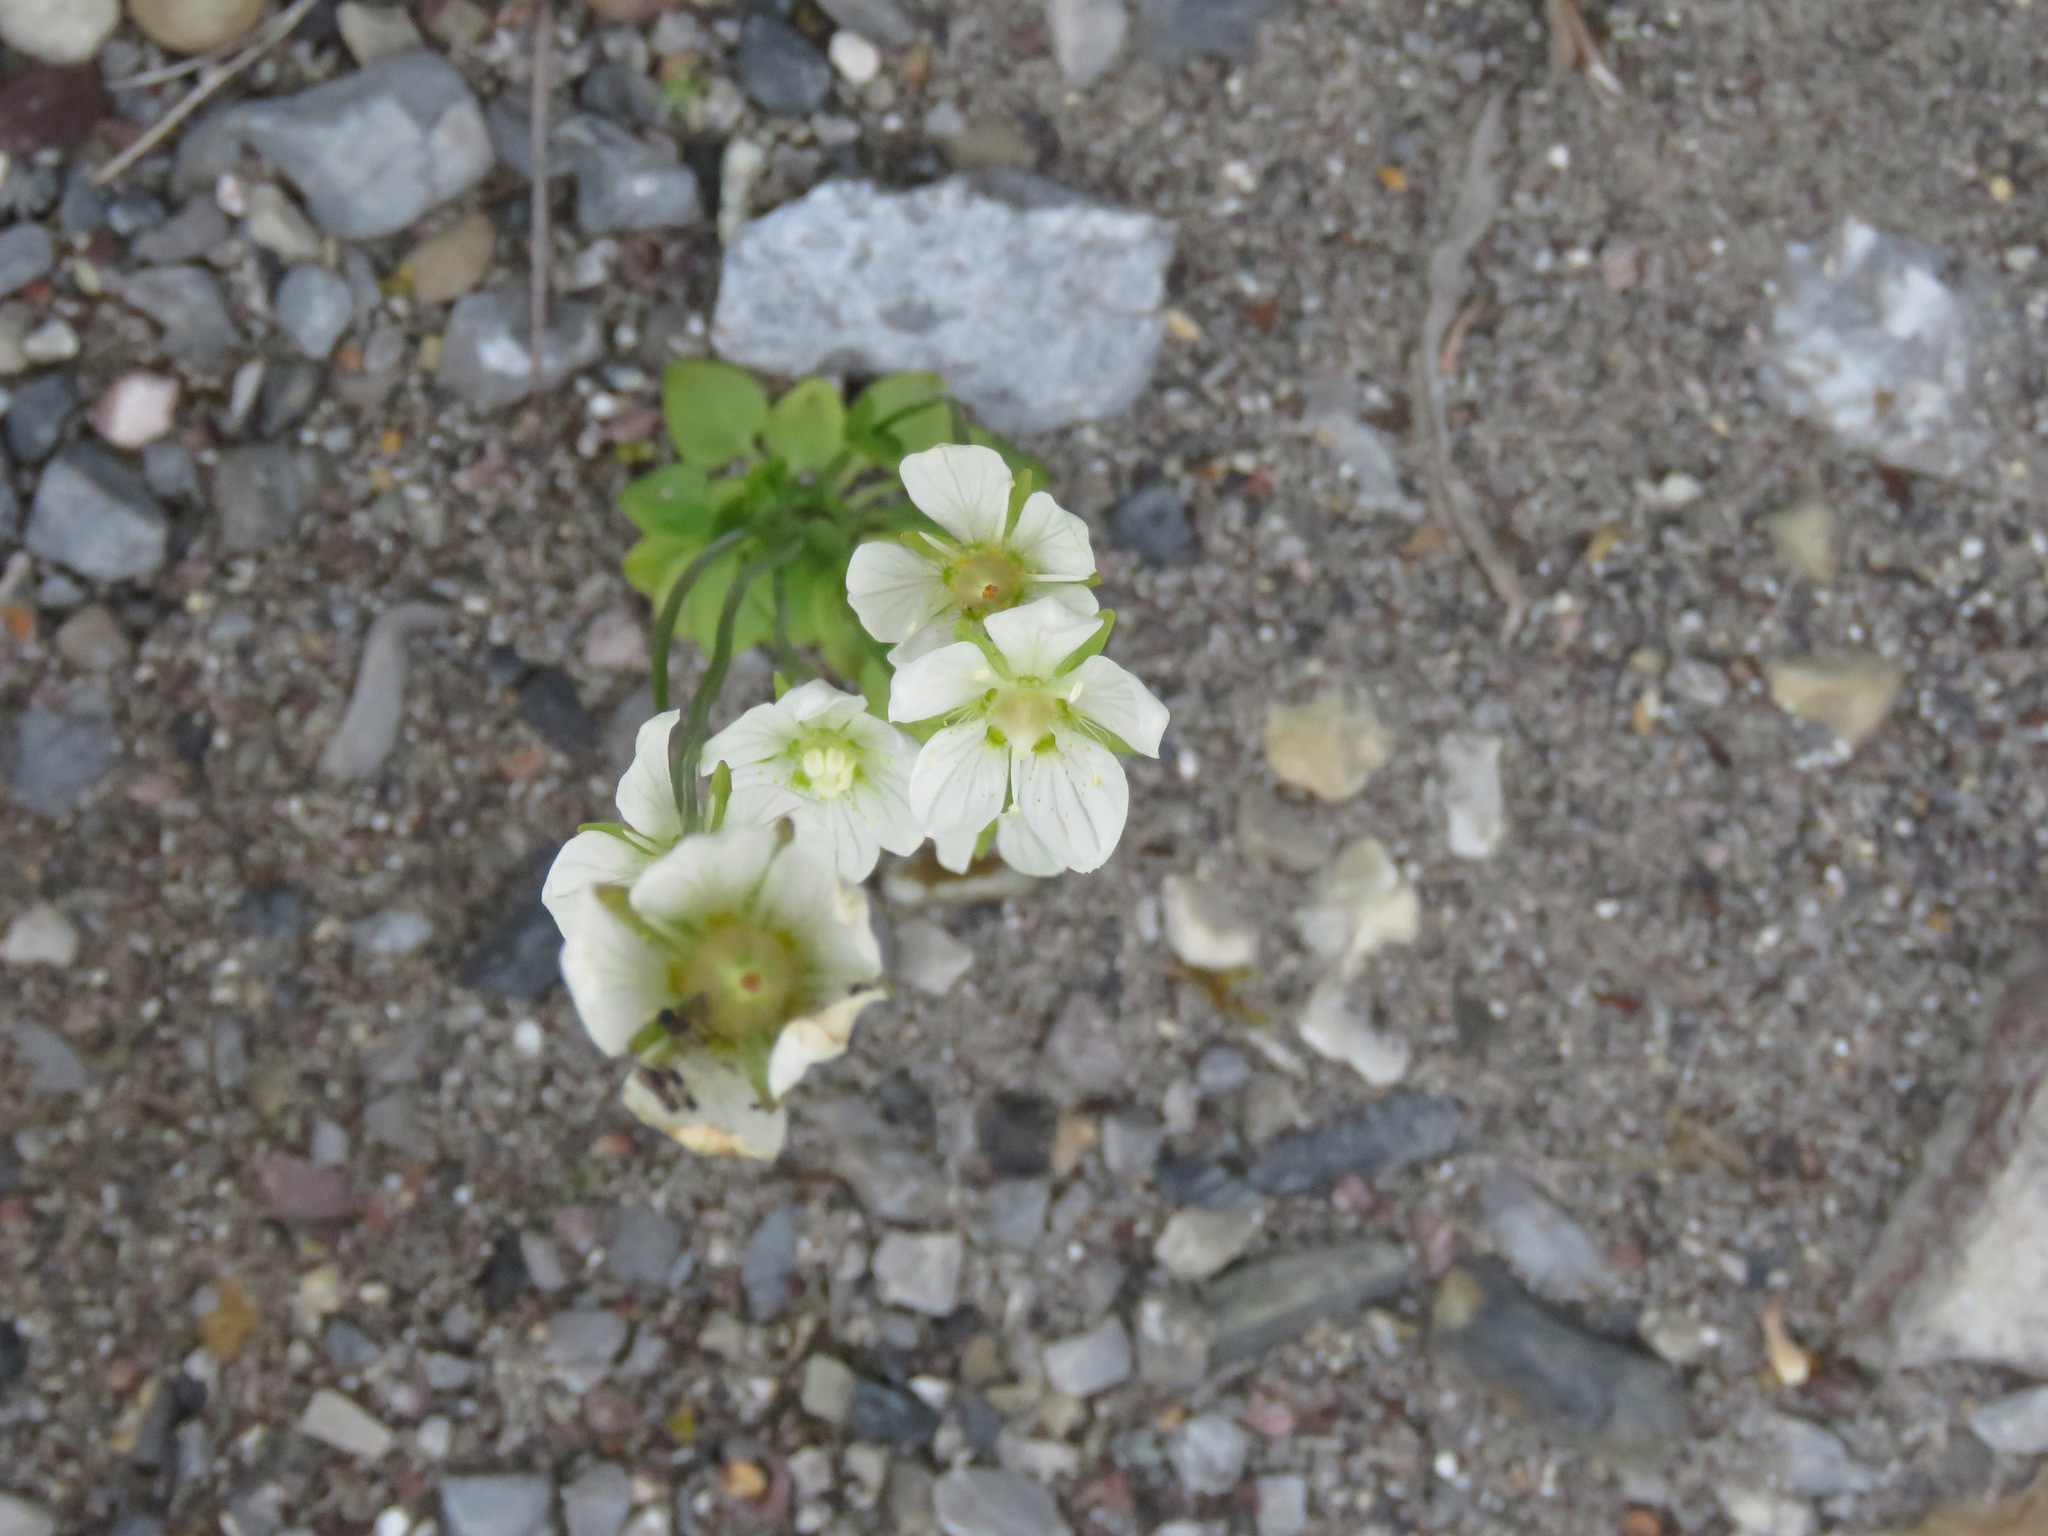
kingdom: Plantae
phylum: Tracheophyta
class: Magnoliopsida
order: Celastrales
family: Parnassiaceae
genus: Parnassia
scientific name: Parnassia palustris
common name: Grass-of-parnassus
